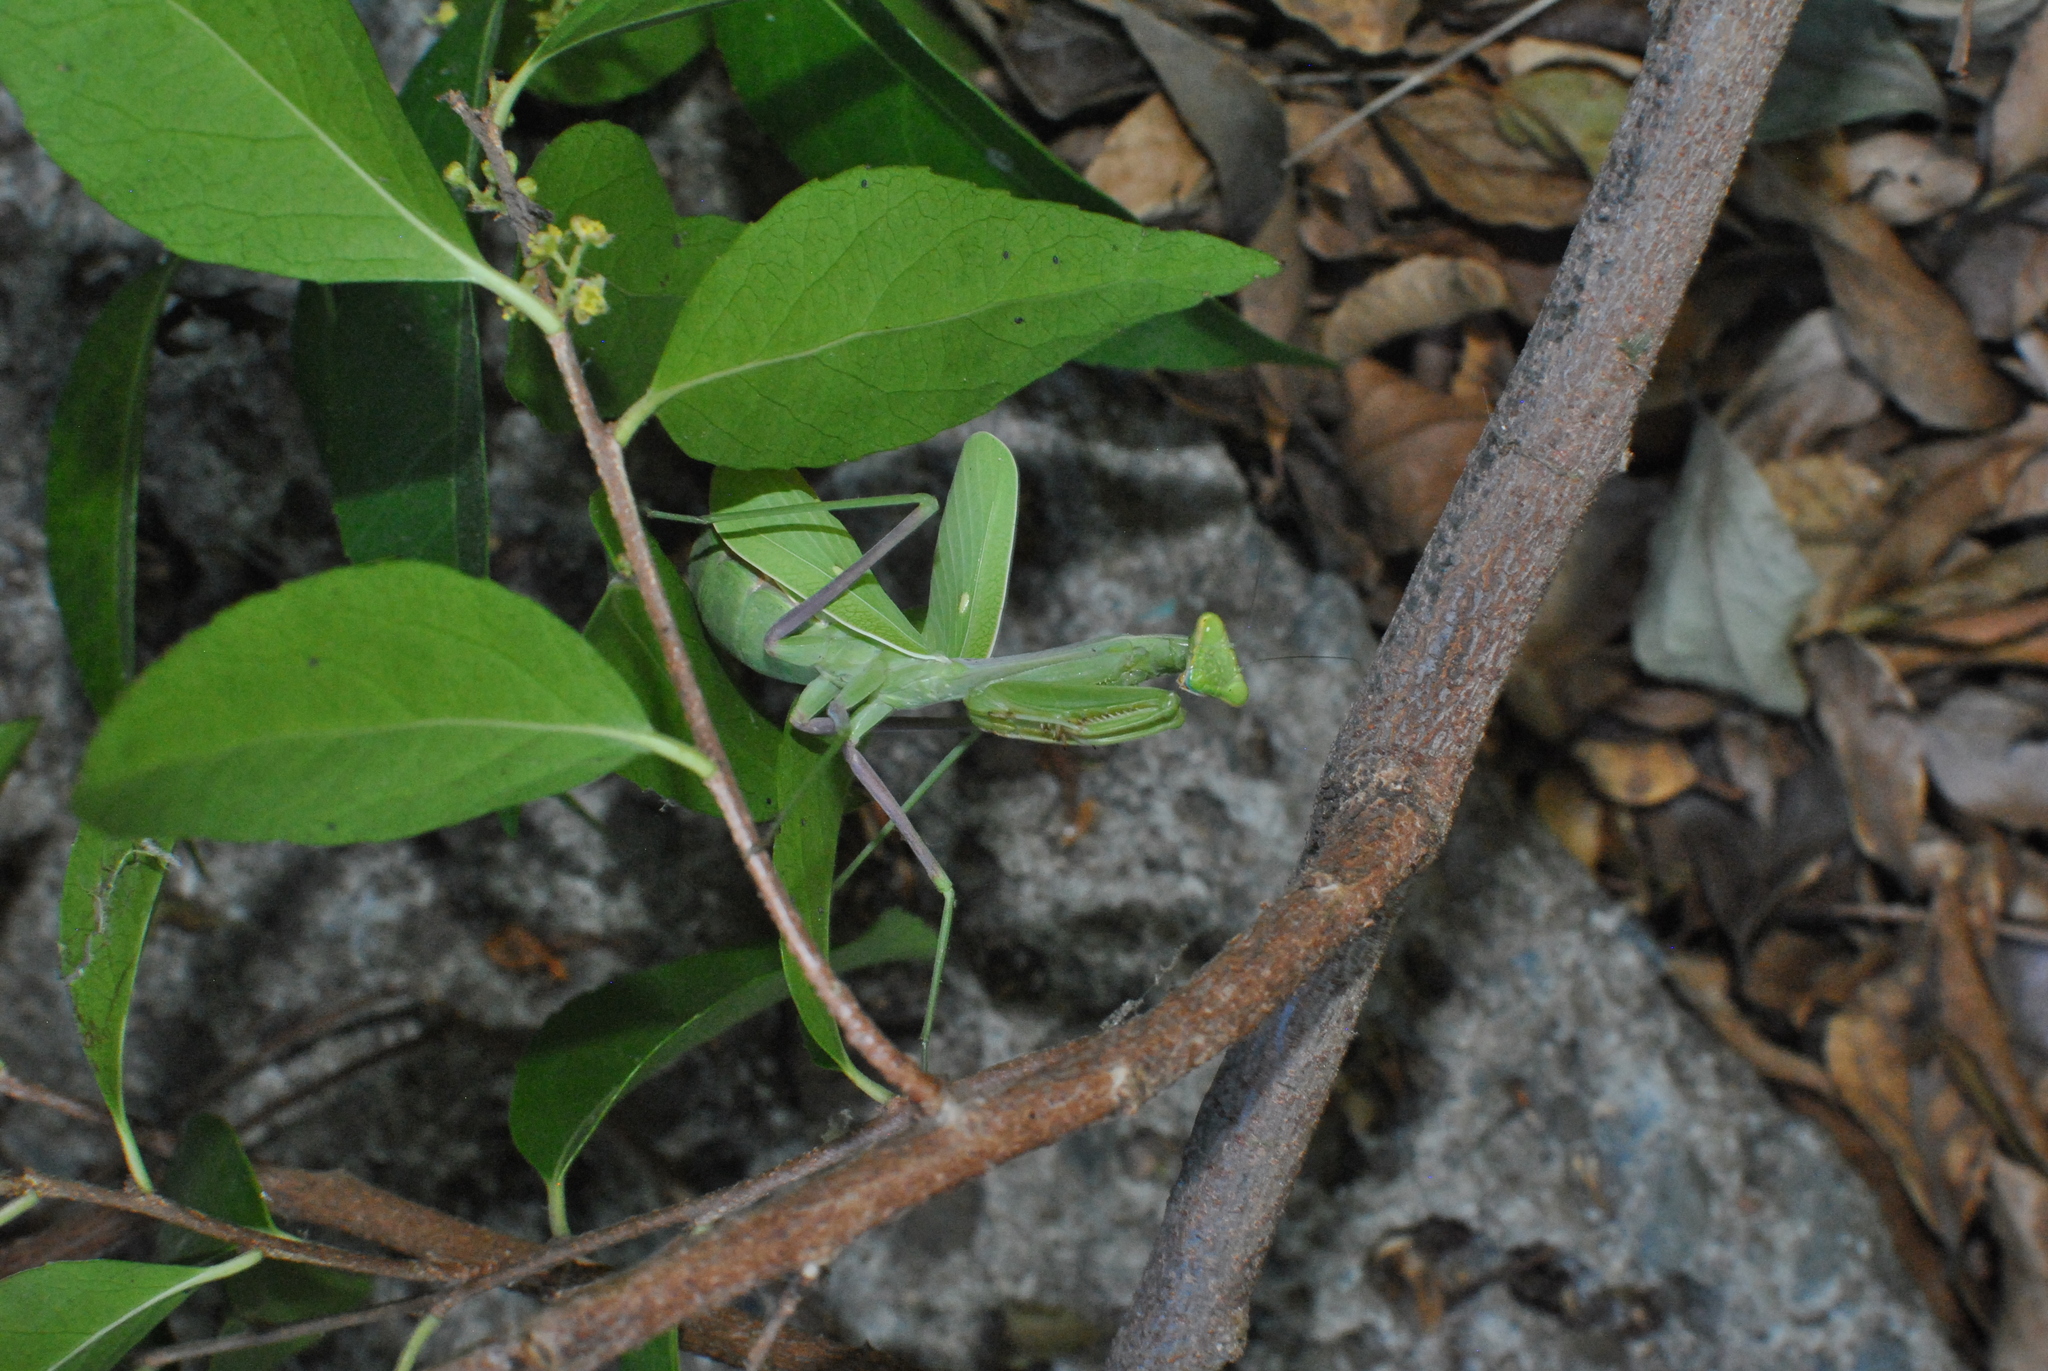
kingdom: Animalia
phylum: Arthropoda
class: Insecta
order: Mantodea
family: Mantidae
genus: Stagmomantis
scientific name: Stagmomantis limbata
